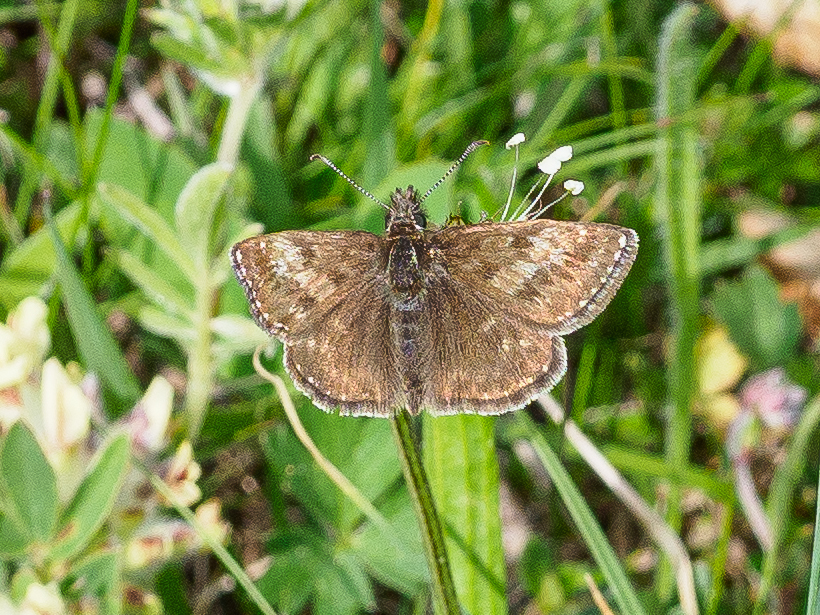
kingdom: Animalia
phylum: Arthropoda
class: Insecta
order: Lepidoptera
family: Hesperiidae
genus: Erynnis
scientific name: Erynnis tages
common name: Dingy skipper
